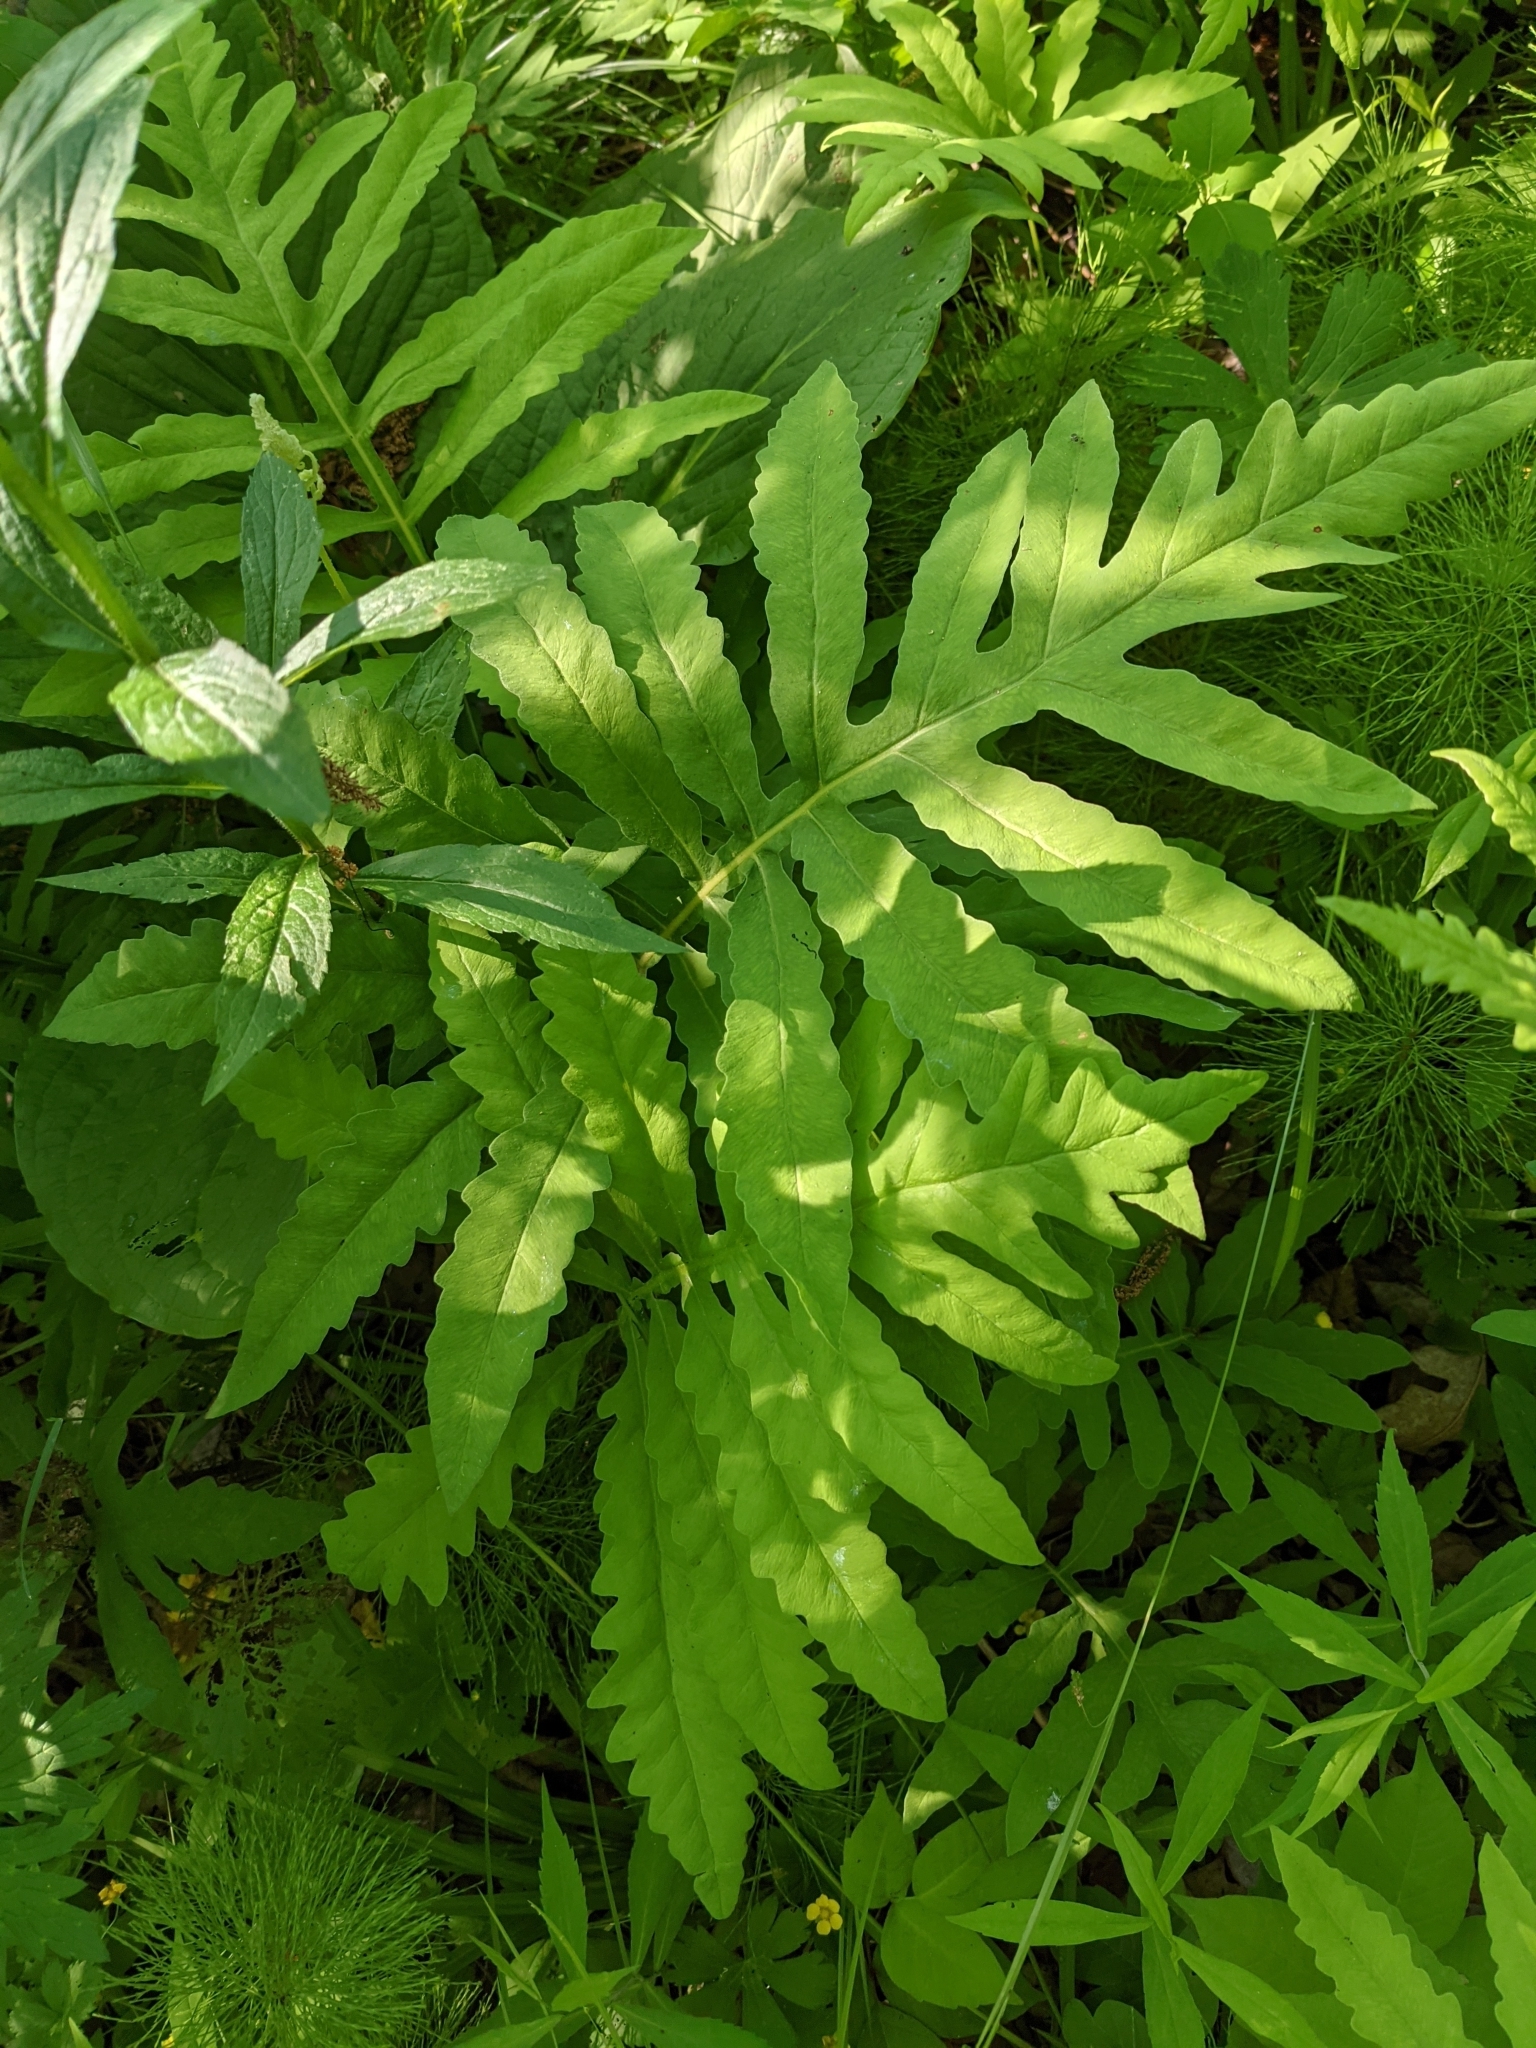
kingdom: Plantae
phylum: Tracheophyta
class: Polypodiopsida
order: Polypodiales
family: Onocleaceae
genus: Onoclea
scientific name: Onoclea sensibilis
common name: Sensitive fern
